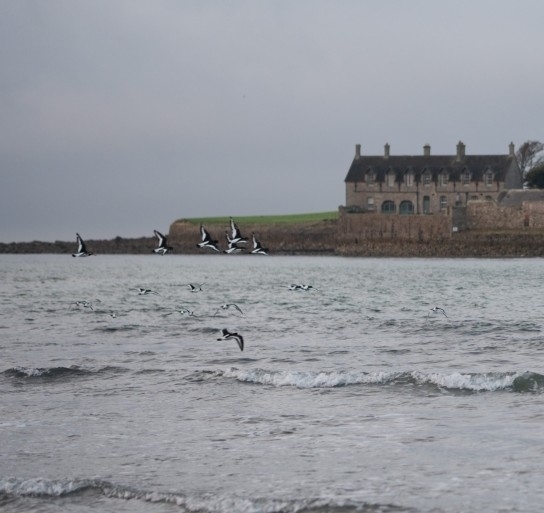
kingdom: Animalia
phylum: Chordata
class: Aves
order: Charadriiformes
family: Haematopodidae
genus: Haematopus
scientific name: Haematopus ostralegus
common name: Eurasian oystercatcher
